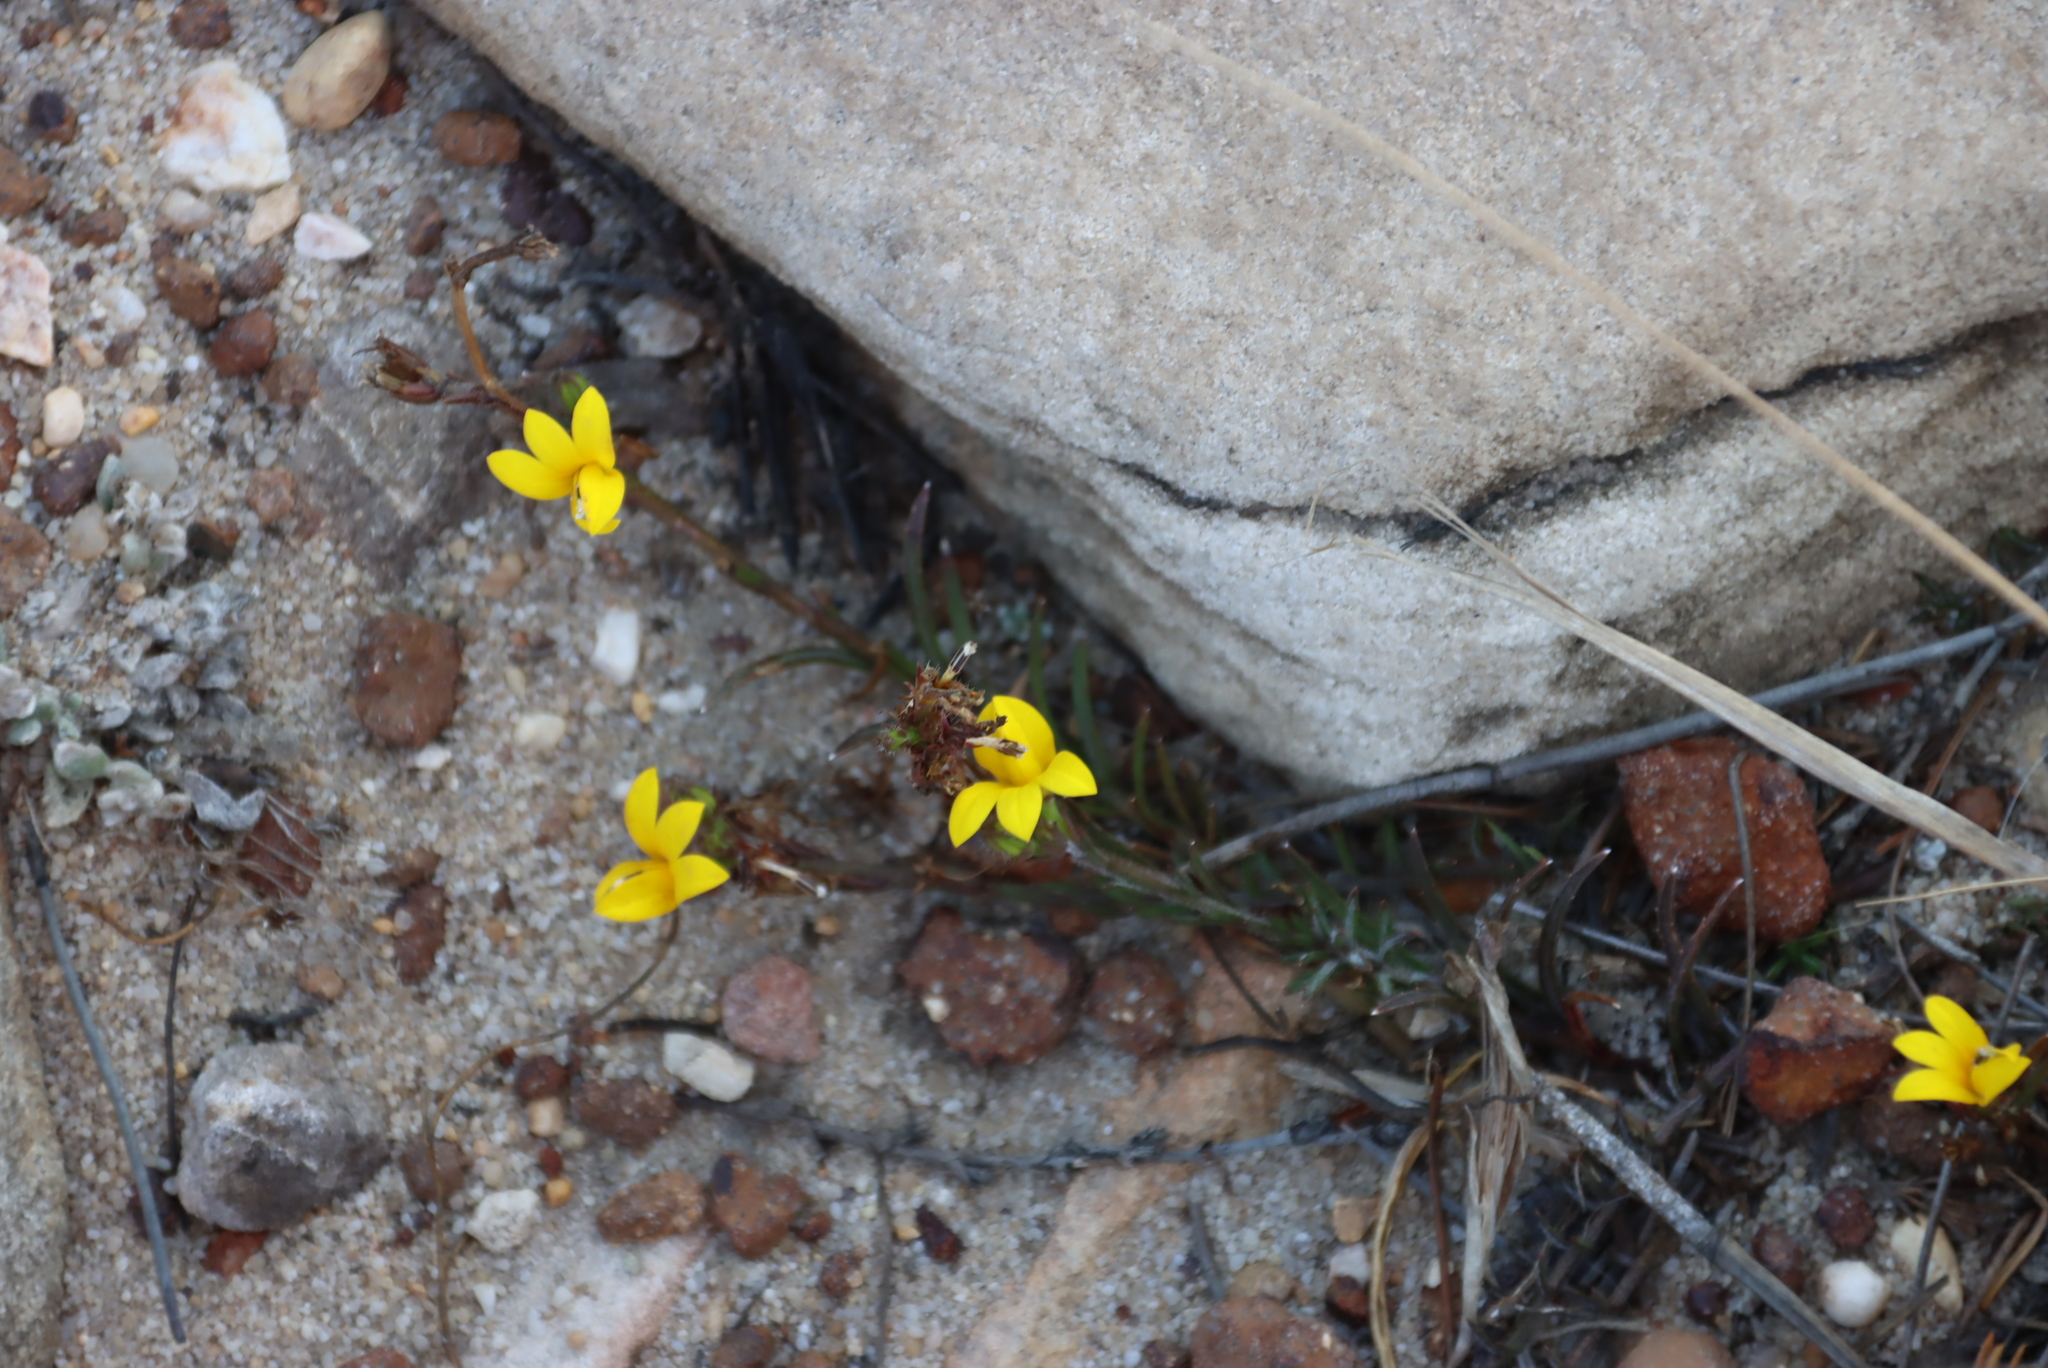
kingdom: Plantae
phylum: Tracheophyta
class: Magnoliopsida
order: Asterales
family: Campanulaceae
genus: Monopsis
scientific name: Monopsis lutea
